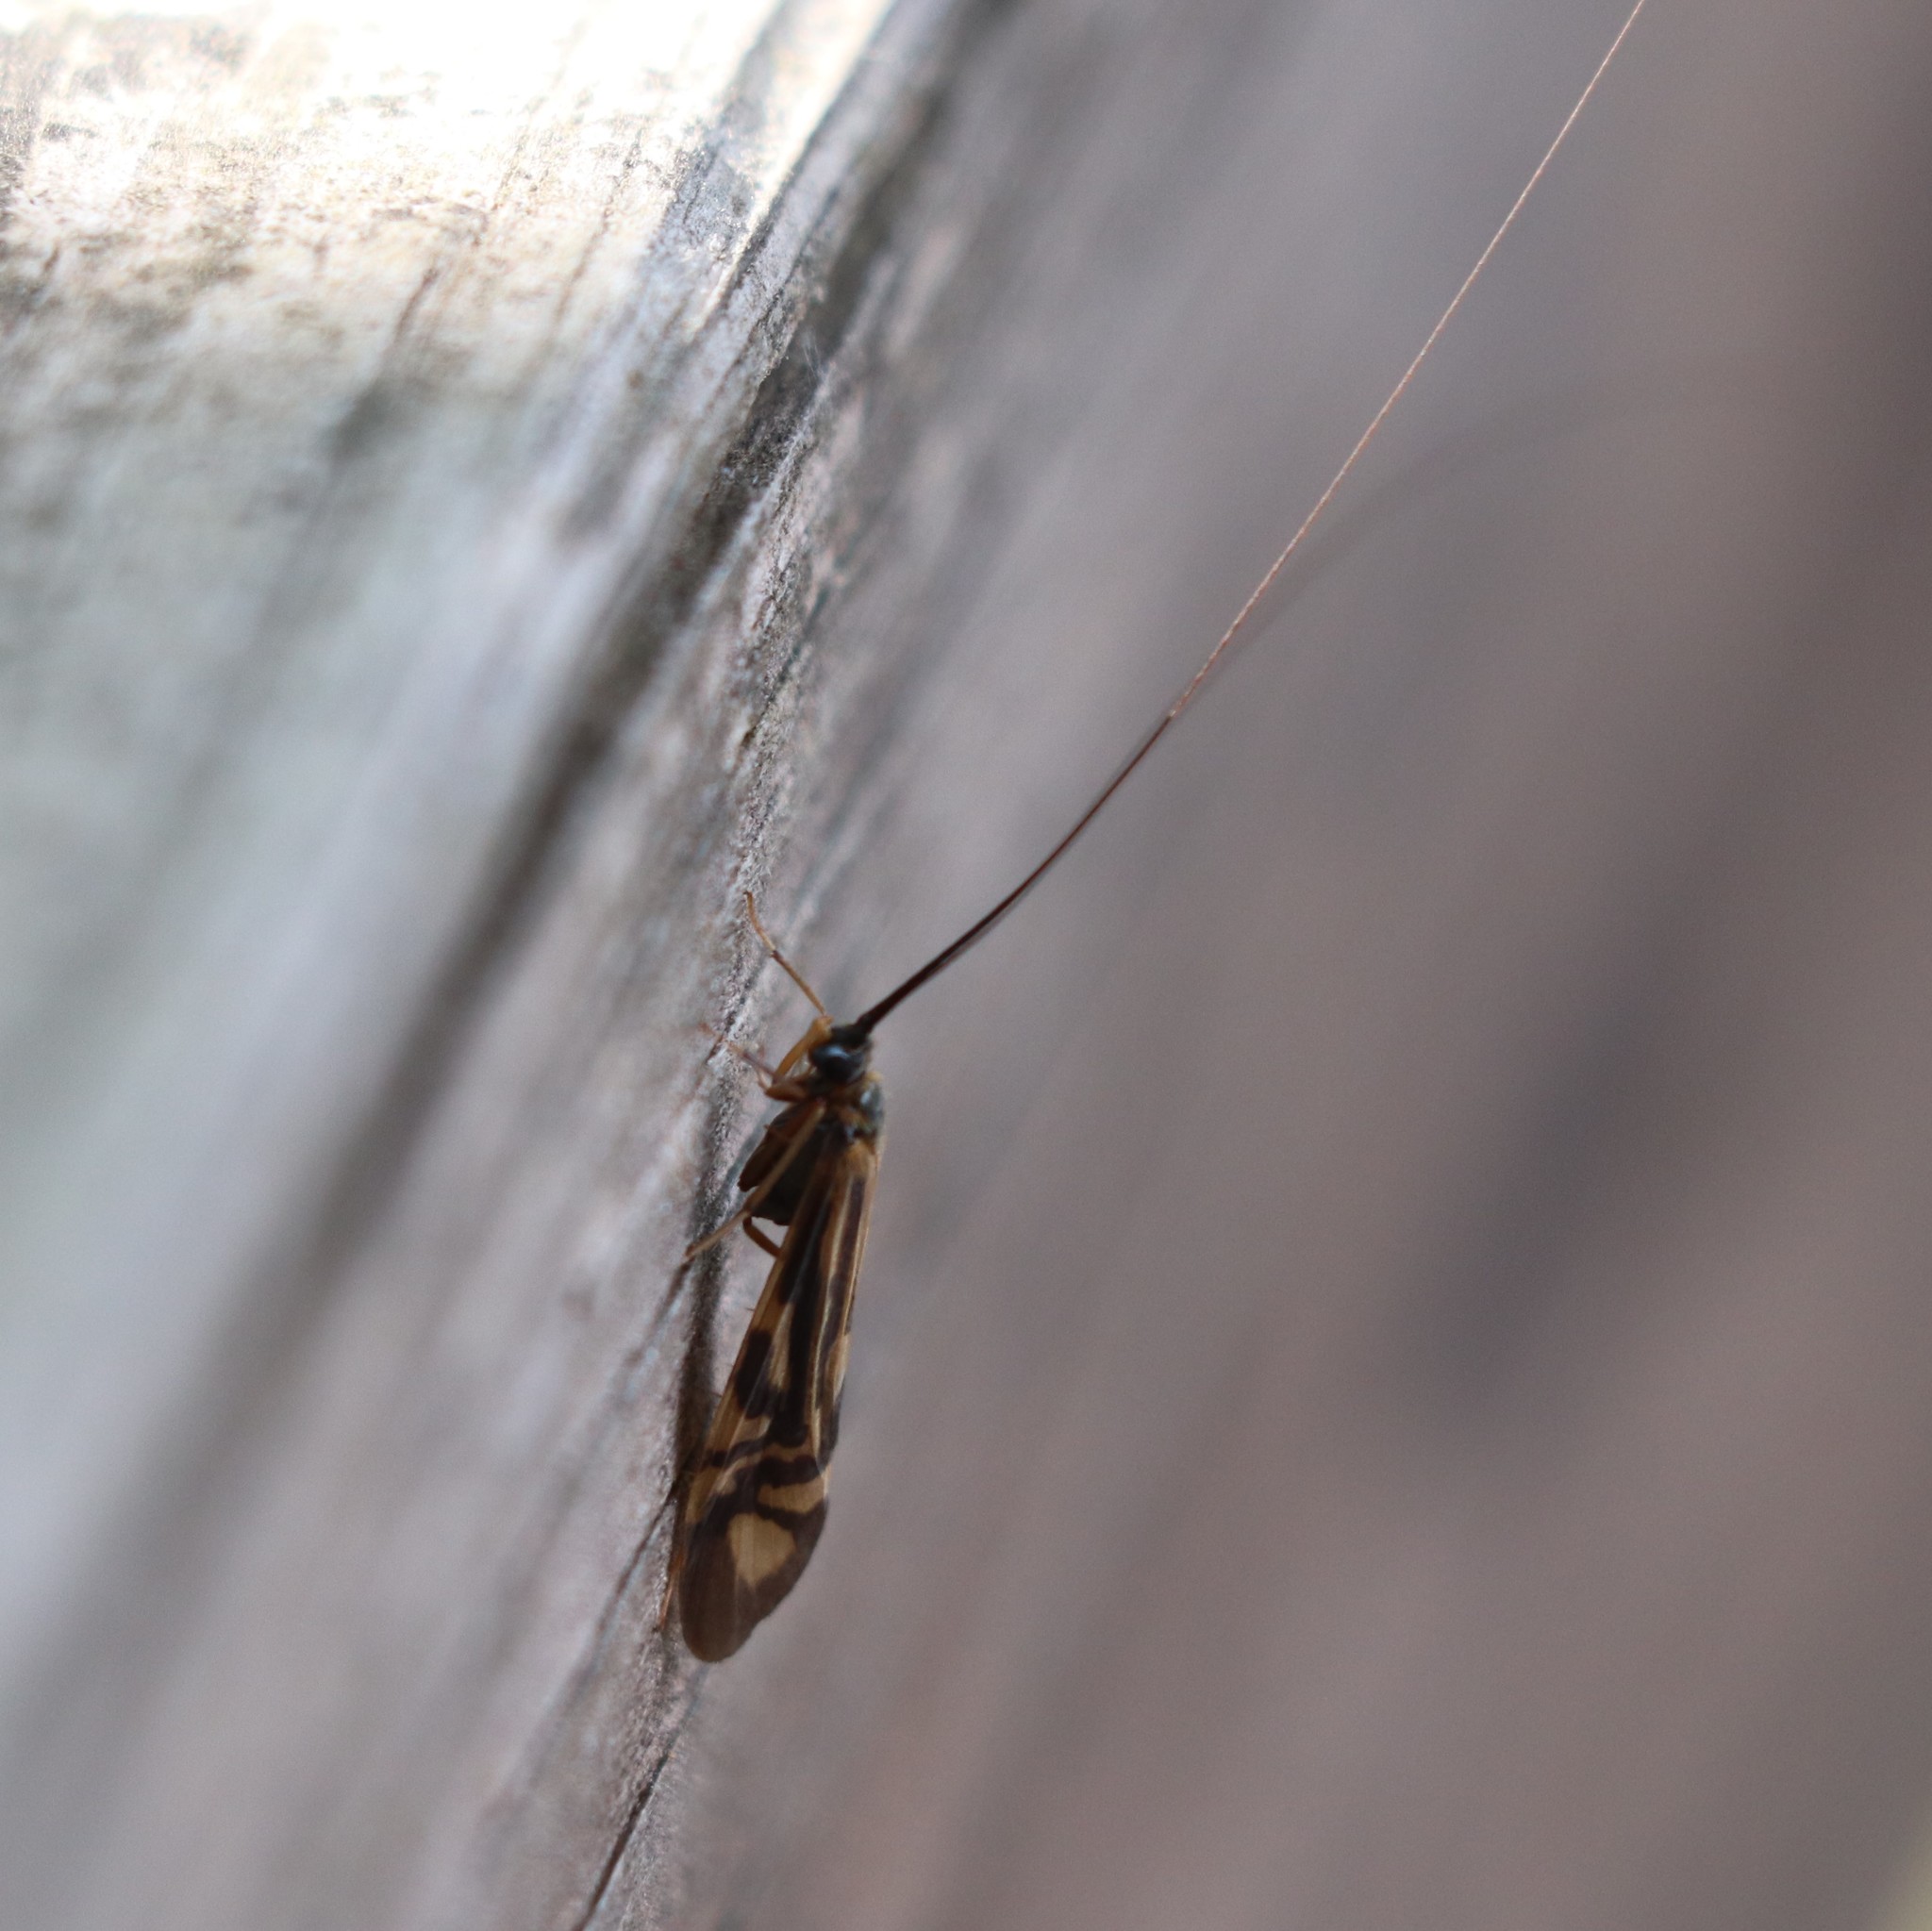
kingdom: Animalia
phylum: Arthropoda
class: Insecta
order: Trichoptera
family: Hydropsychidae
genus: Macrostemum
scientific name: Macrostemum zebratum
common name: Zebra caddisfly
